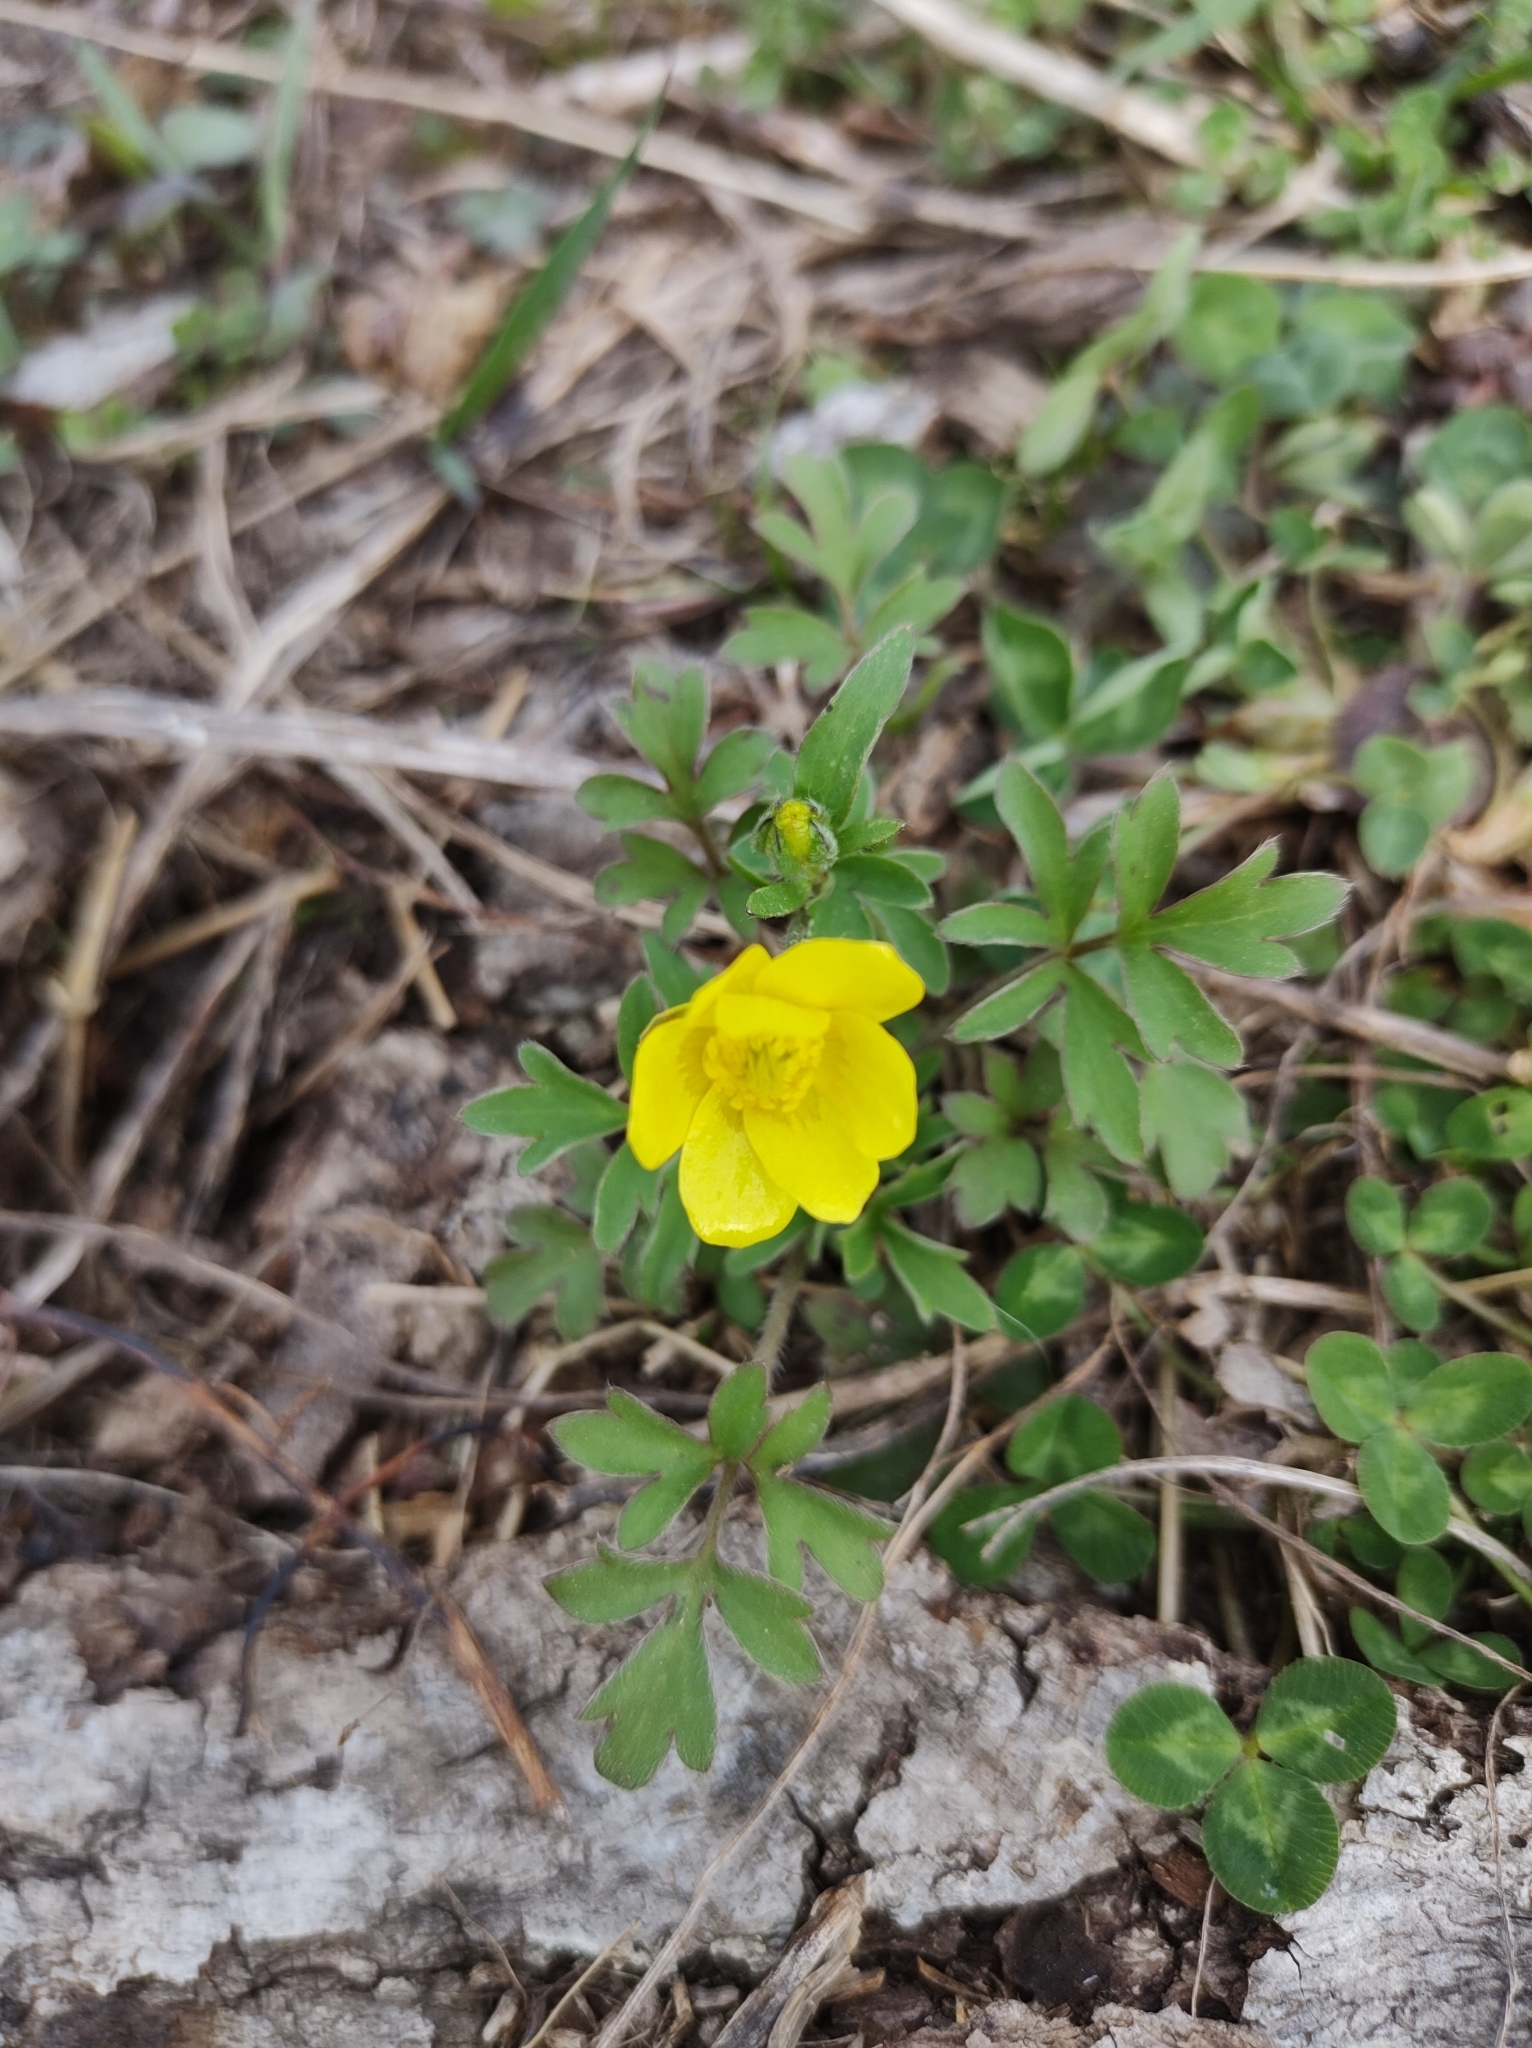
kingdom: Plantae
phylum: Tracheophyta
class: Magnoliopsida
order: Ranunculales
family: Ranunculaceae
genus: Ranunculus
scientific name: Ranunculus fascicularis
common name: Early buttercup
